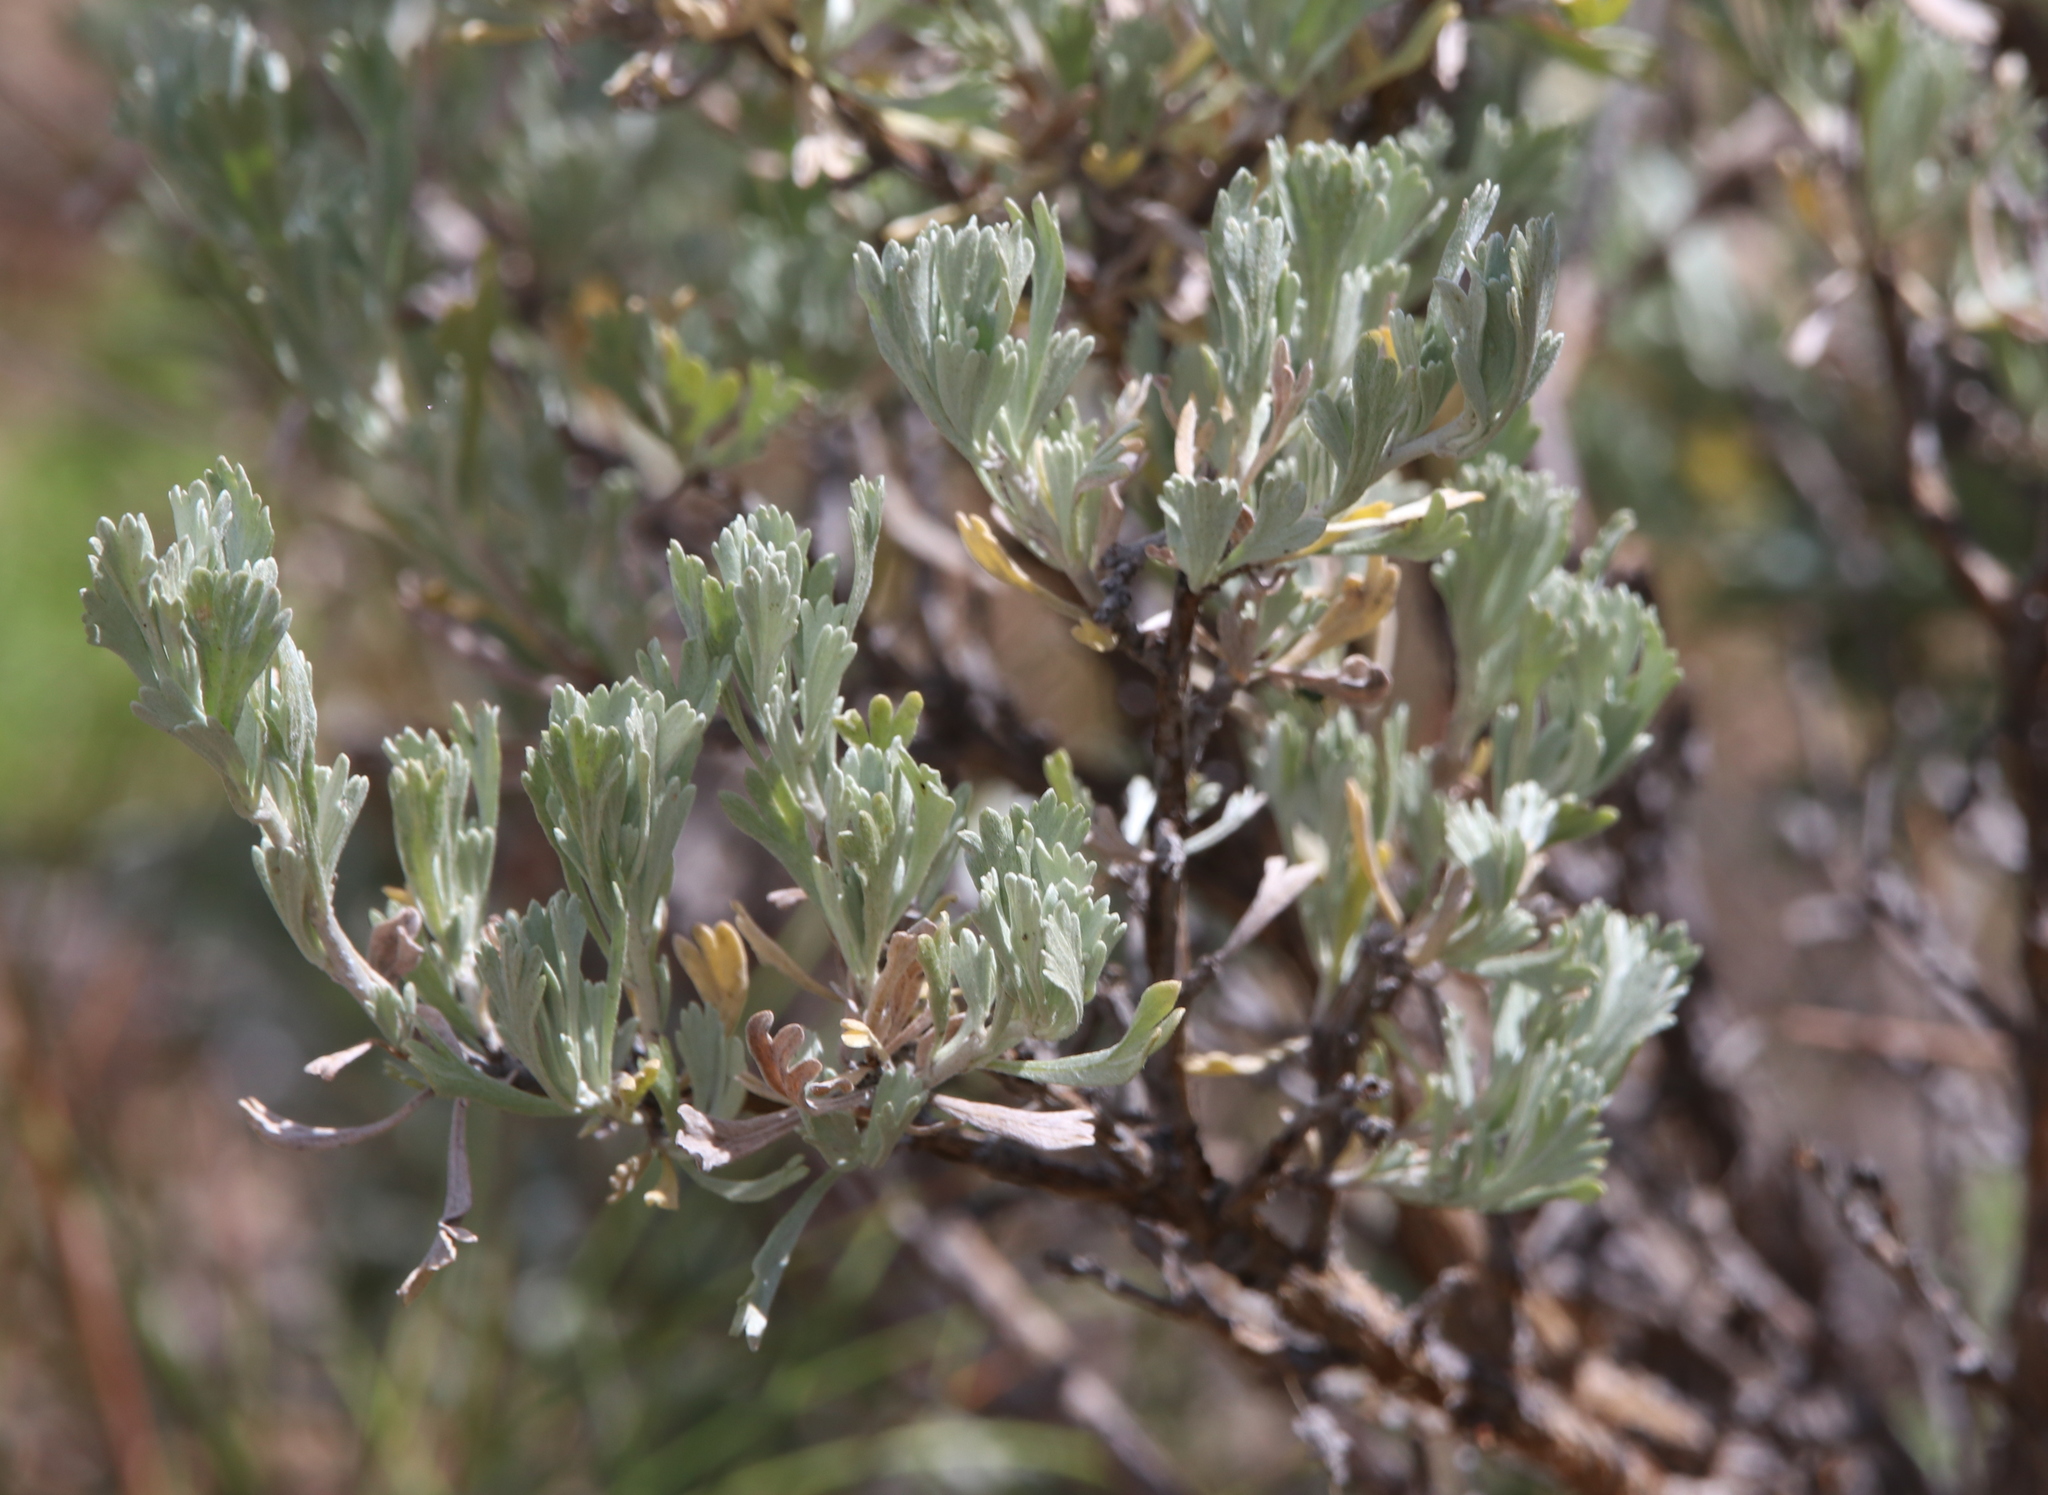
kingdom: Plantae
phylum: Tracheophyta
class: Magnoliopsida
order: Asterales
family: Asteraceae
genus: Artemisia
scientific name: Artemisia tridentata
